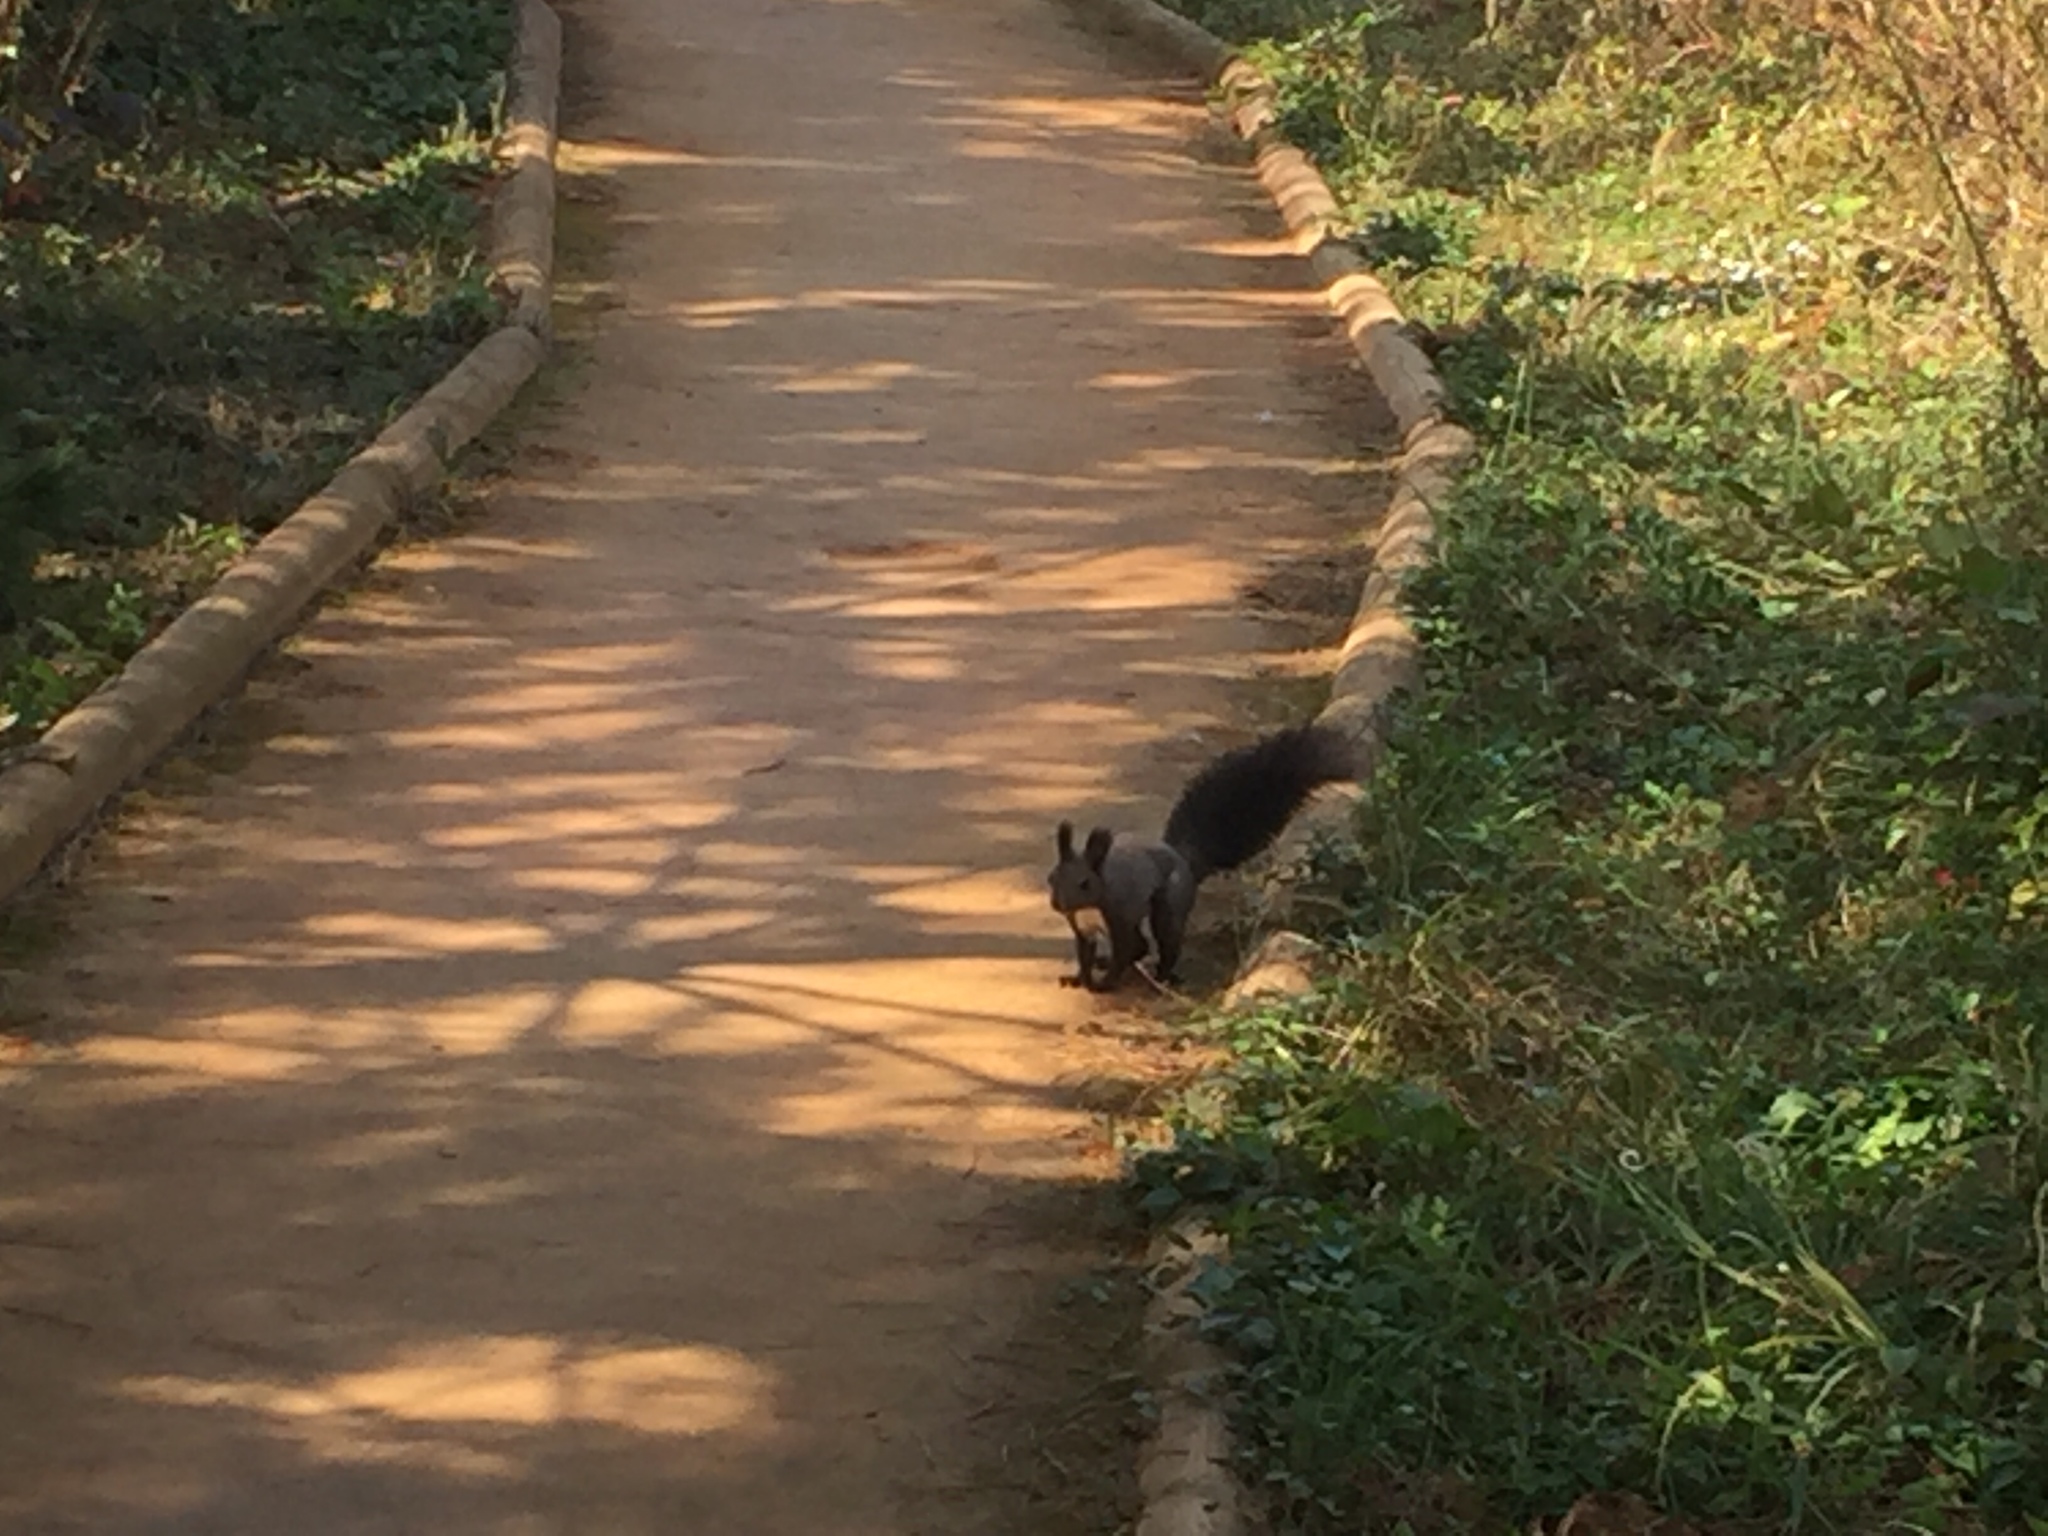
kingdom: Animalia
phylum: Chordata
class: Mammalia
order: Rodentia
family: Sciuridae
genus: Sciurus
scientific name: Sciurus vulgaris
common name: Eurasian red squirrel
